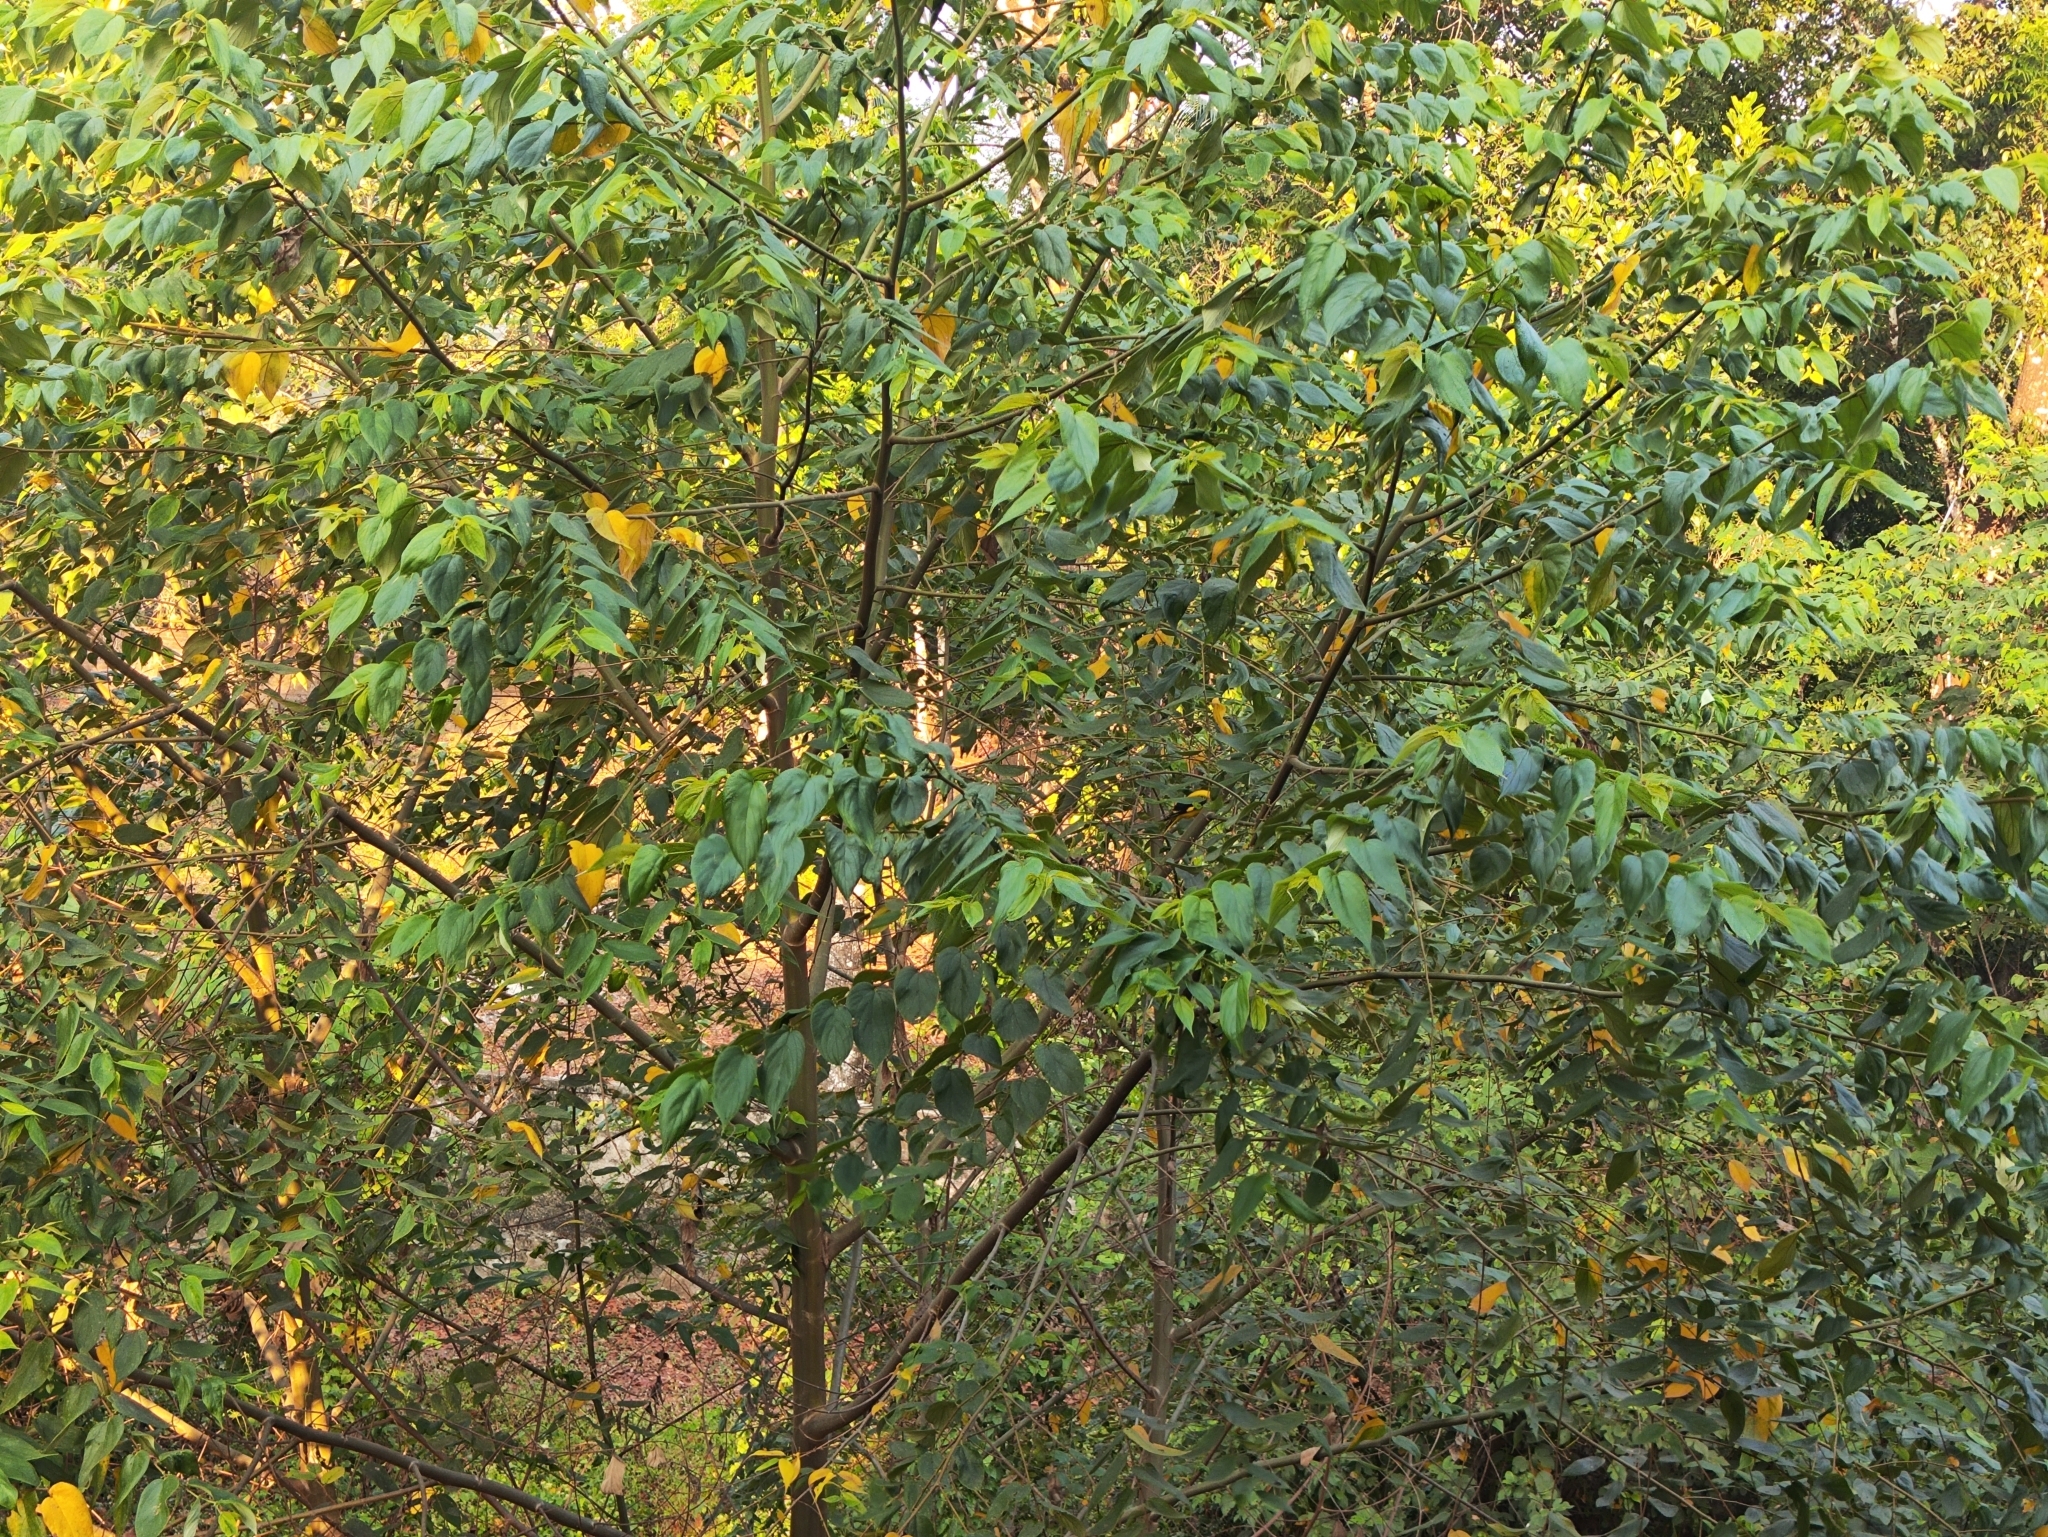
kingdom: Animalia
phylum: Chordata
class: Aves
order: Passeriformes
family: Pycnonotidae
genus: Pycnonotus
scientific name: Pycnonotus jocosus
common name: Red-whiskered bulbul
